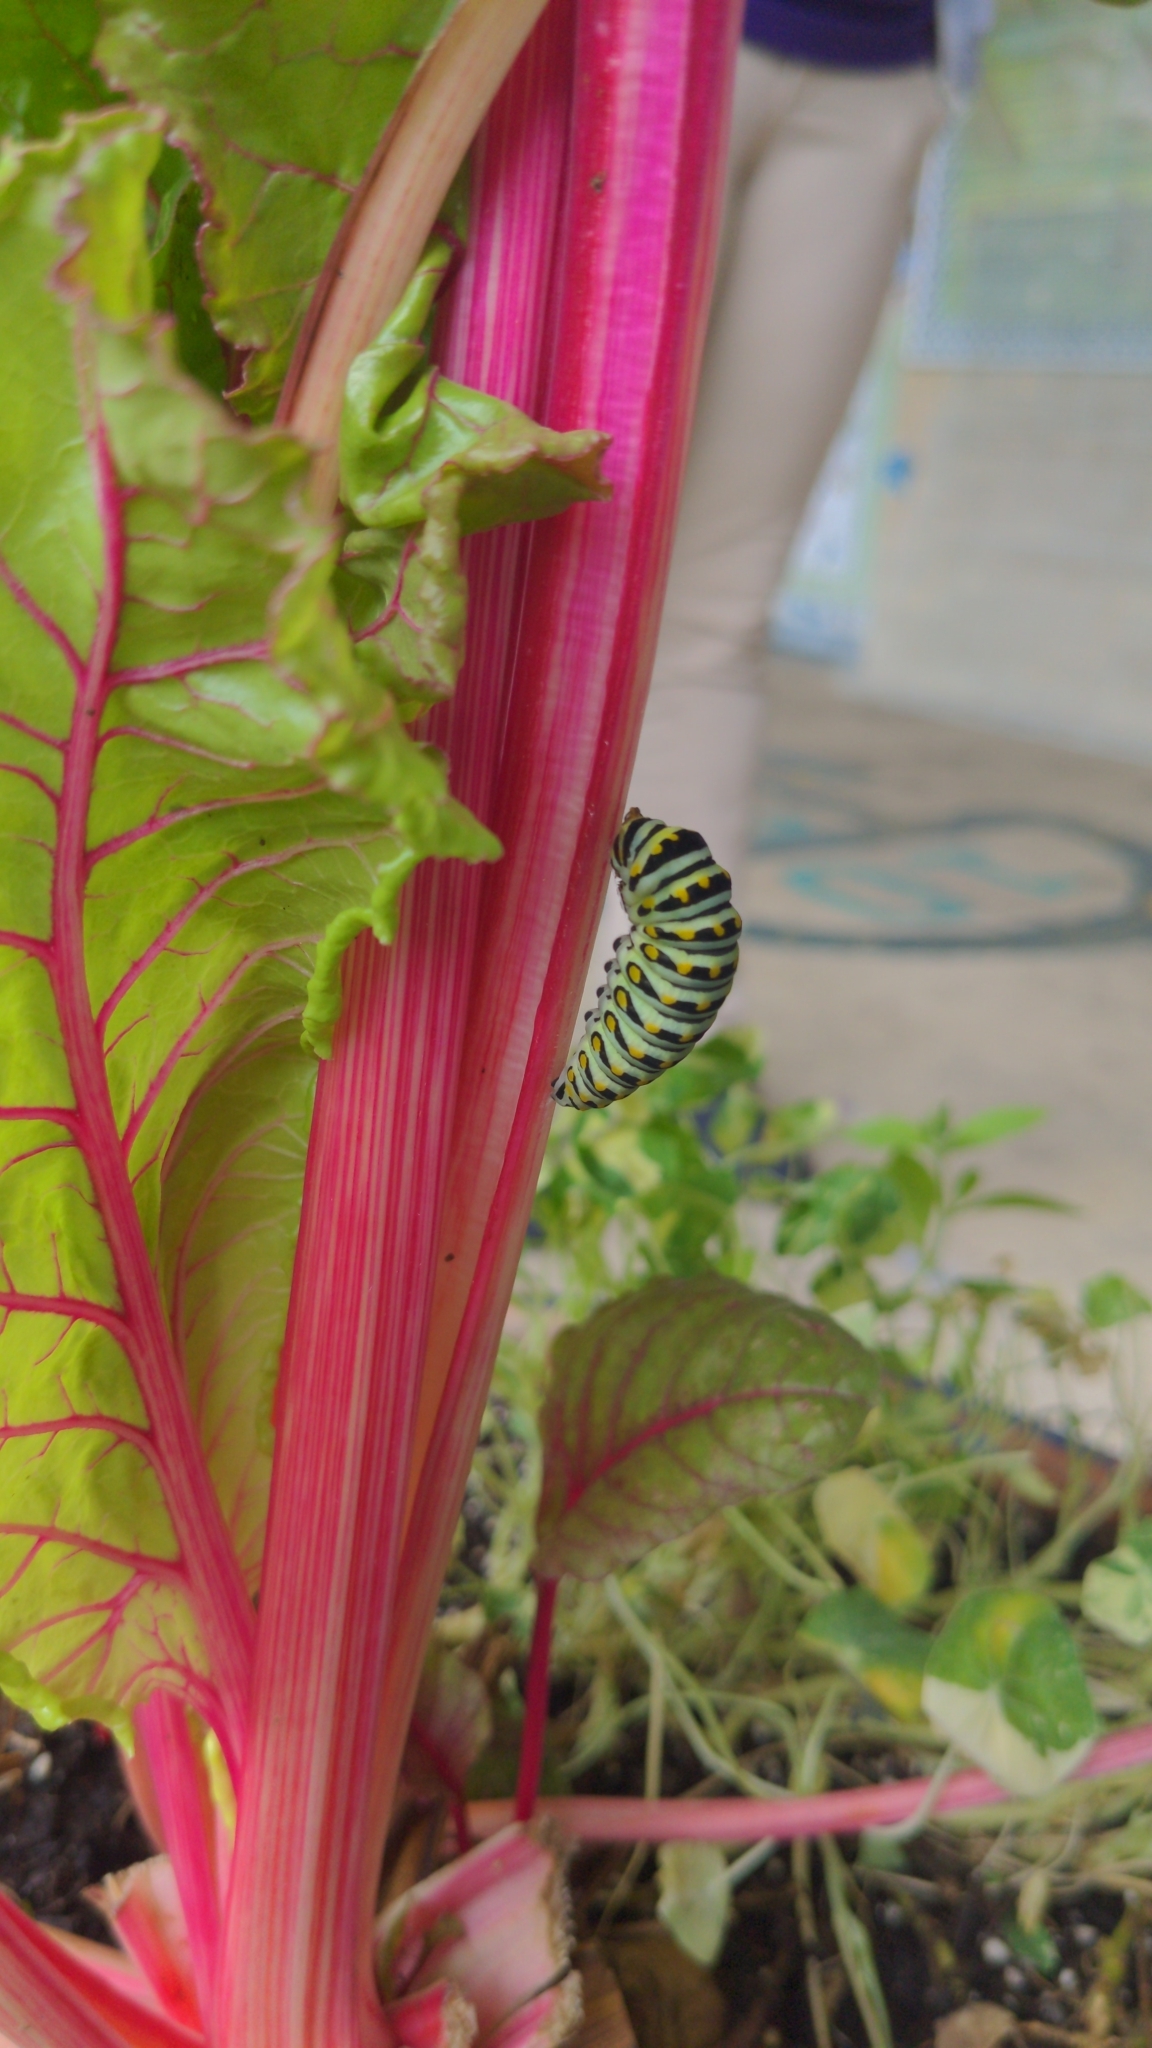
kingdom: Animalia
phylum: Arthropoda
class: Insecta
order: Lepidoptera
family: Papilionidae
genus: Papilio
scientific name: Papilio polyxenes
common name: Black swallowtail
